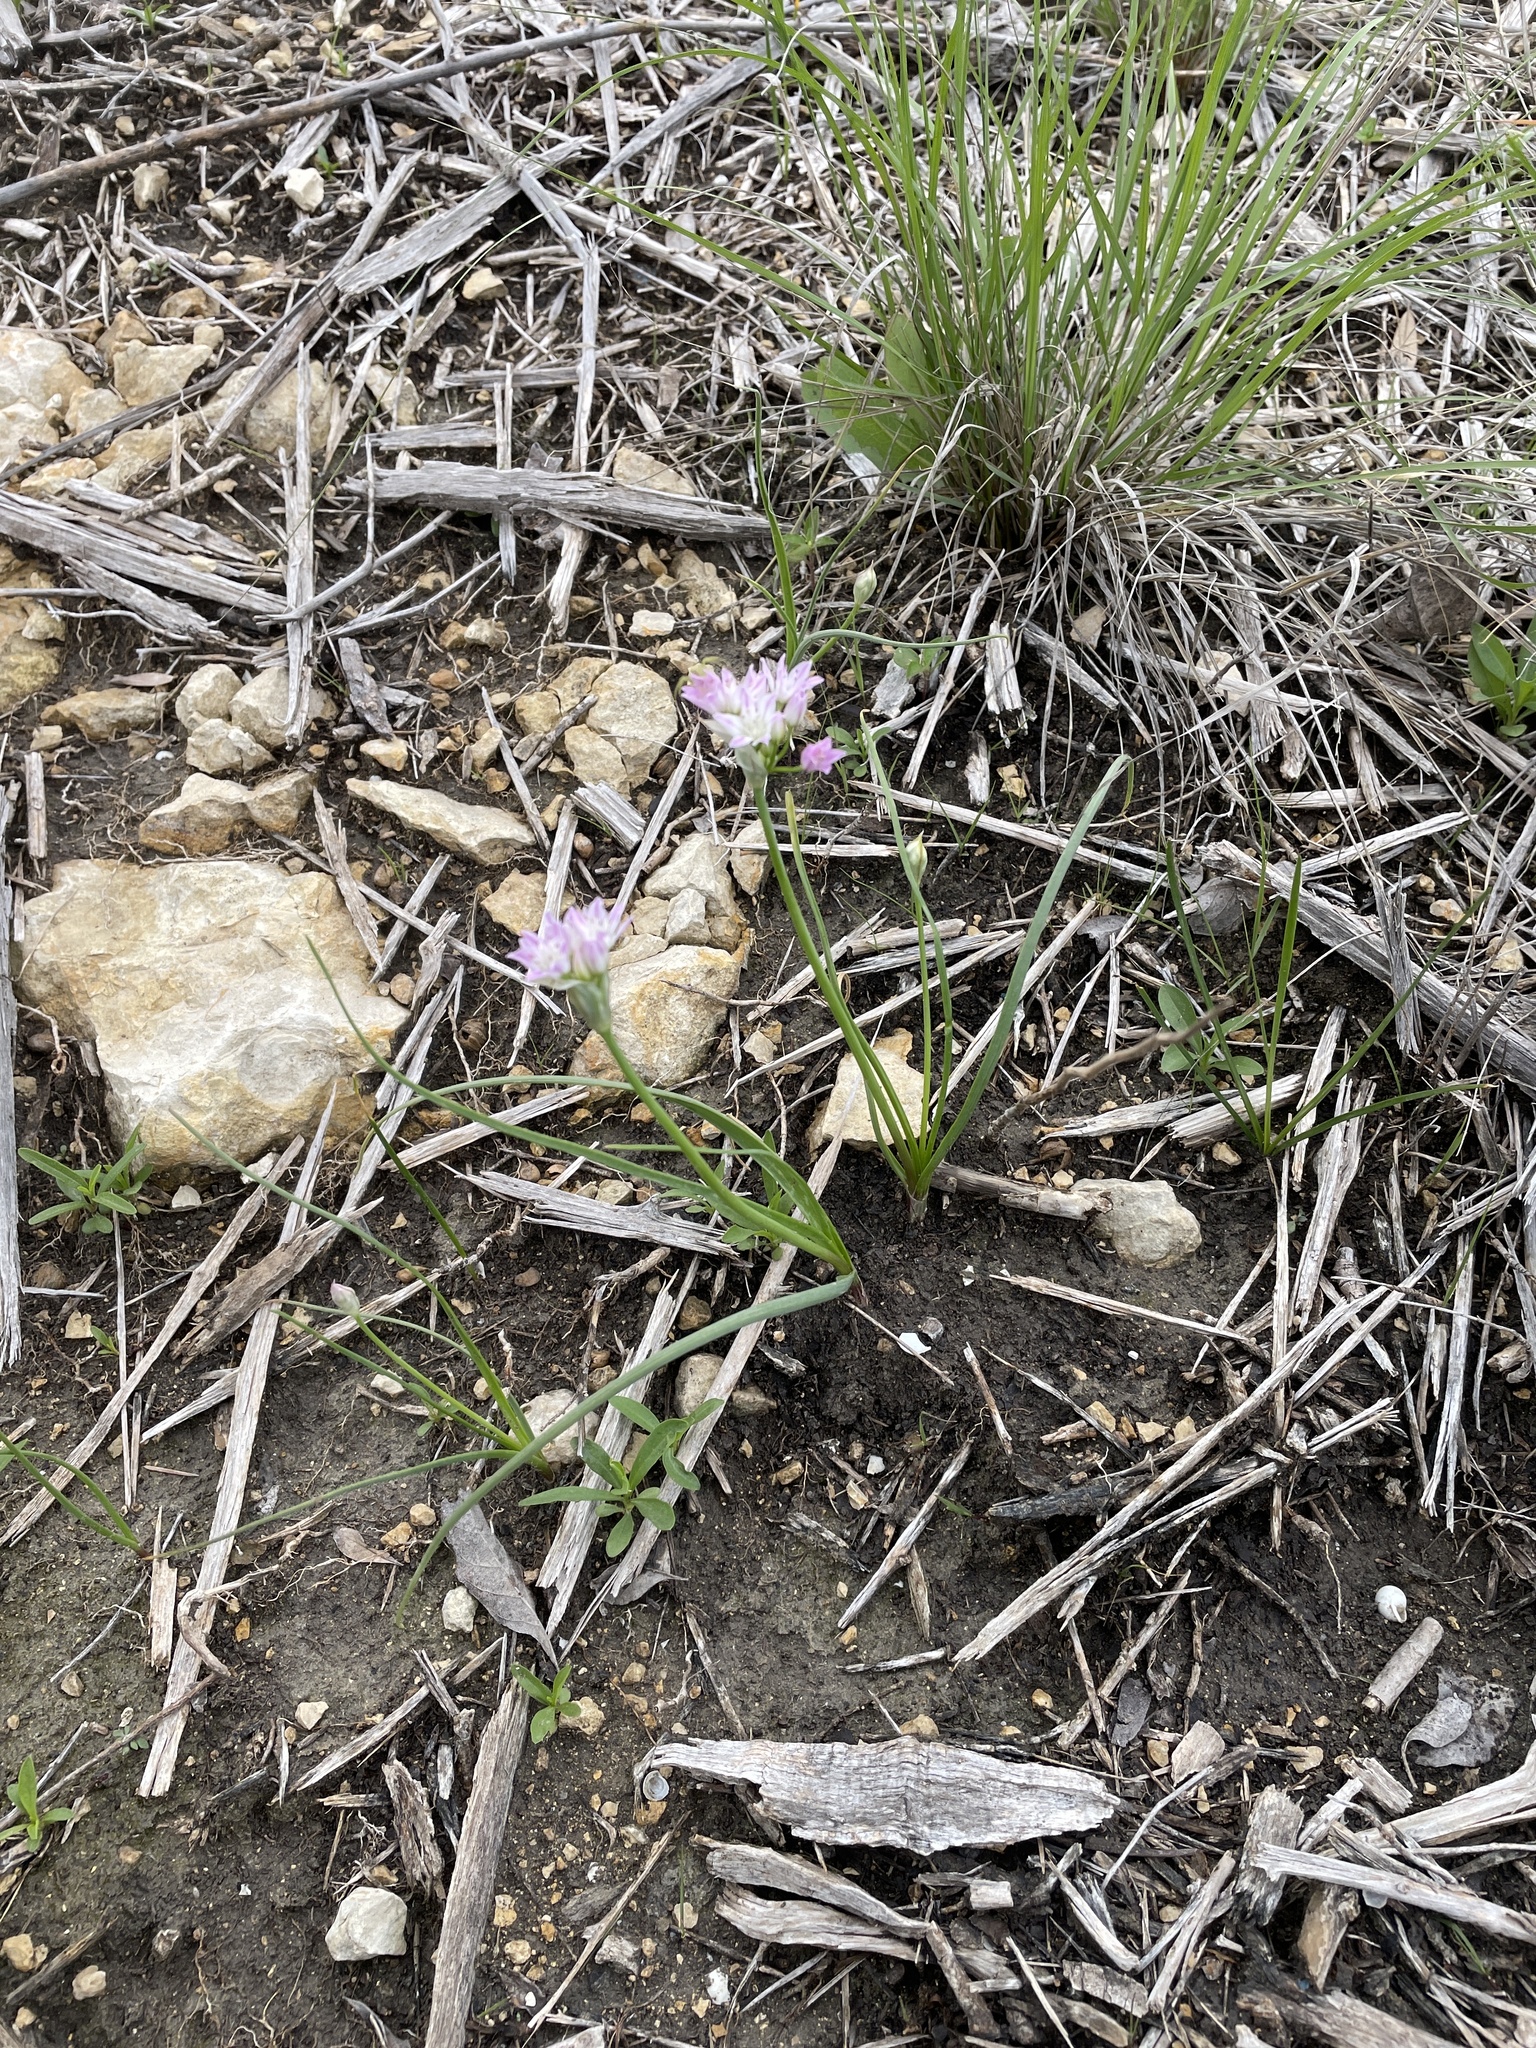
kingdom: Plantae
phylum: Tracheophyta
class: Liliopsida
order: Asparagales
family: Amaryllidaceae
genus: Allium
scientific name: Allium drummondii
